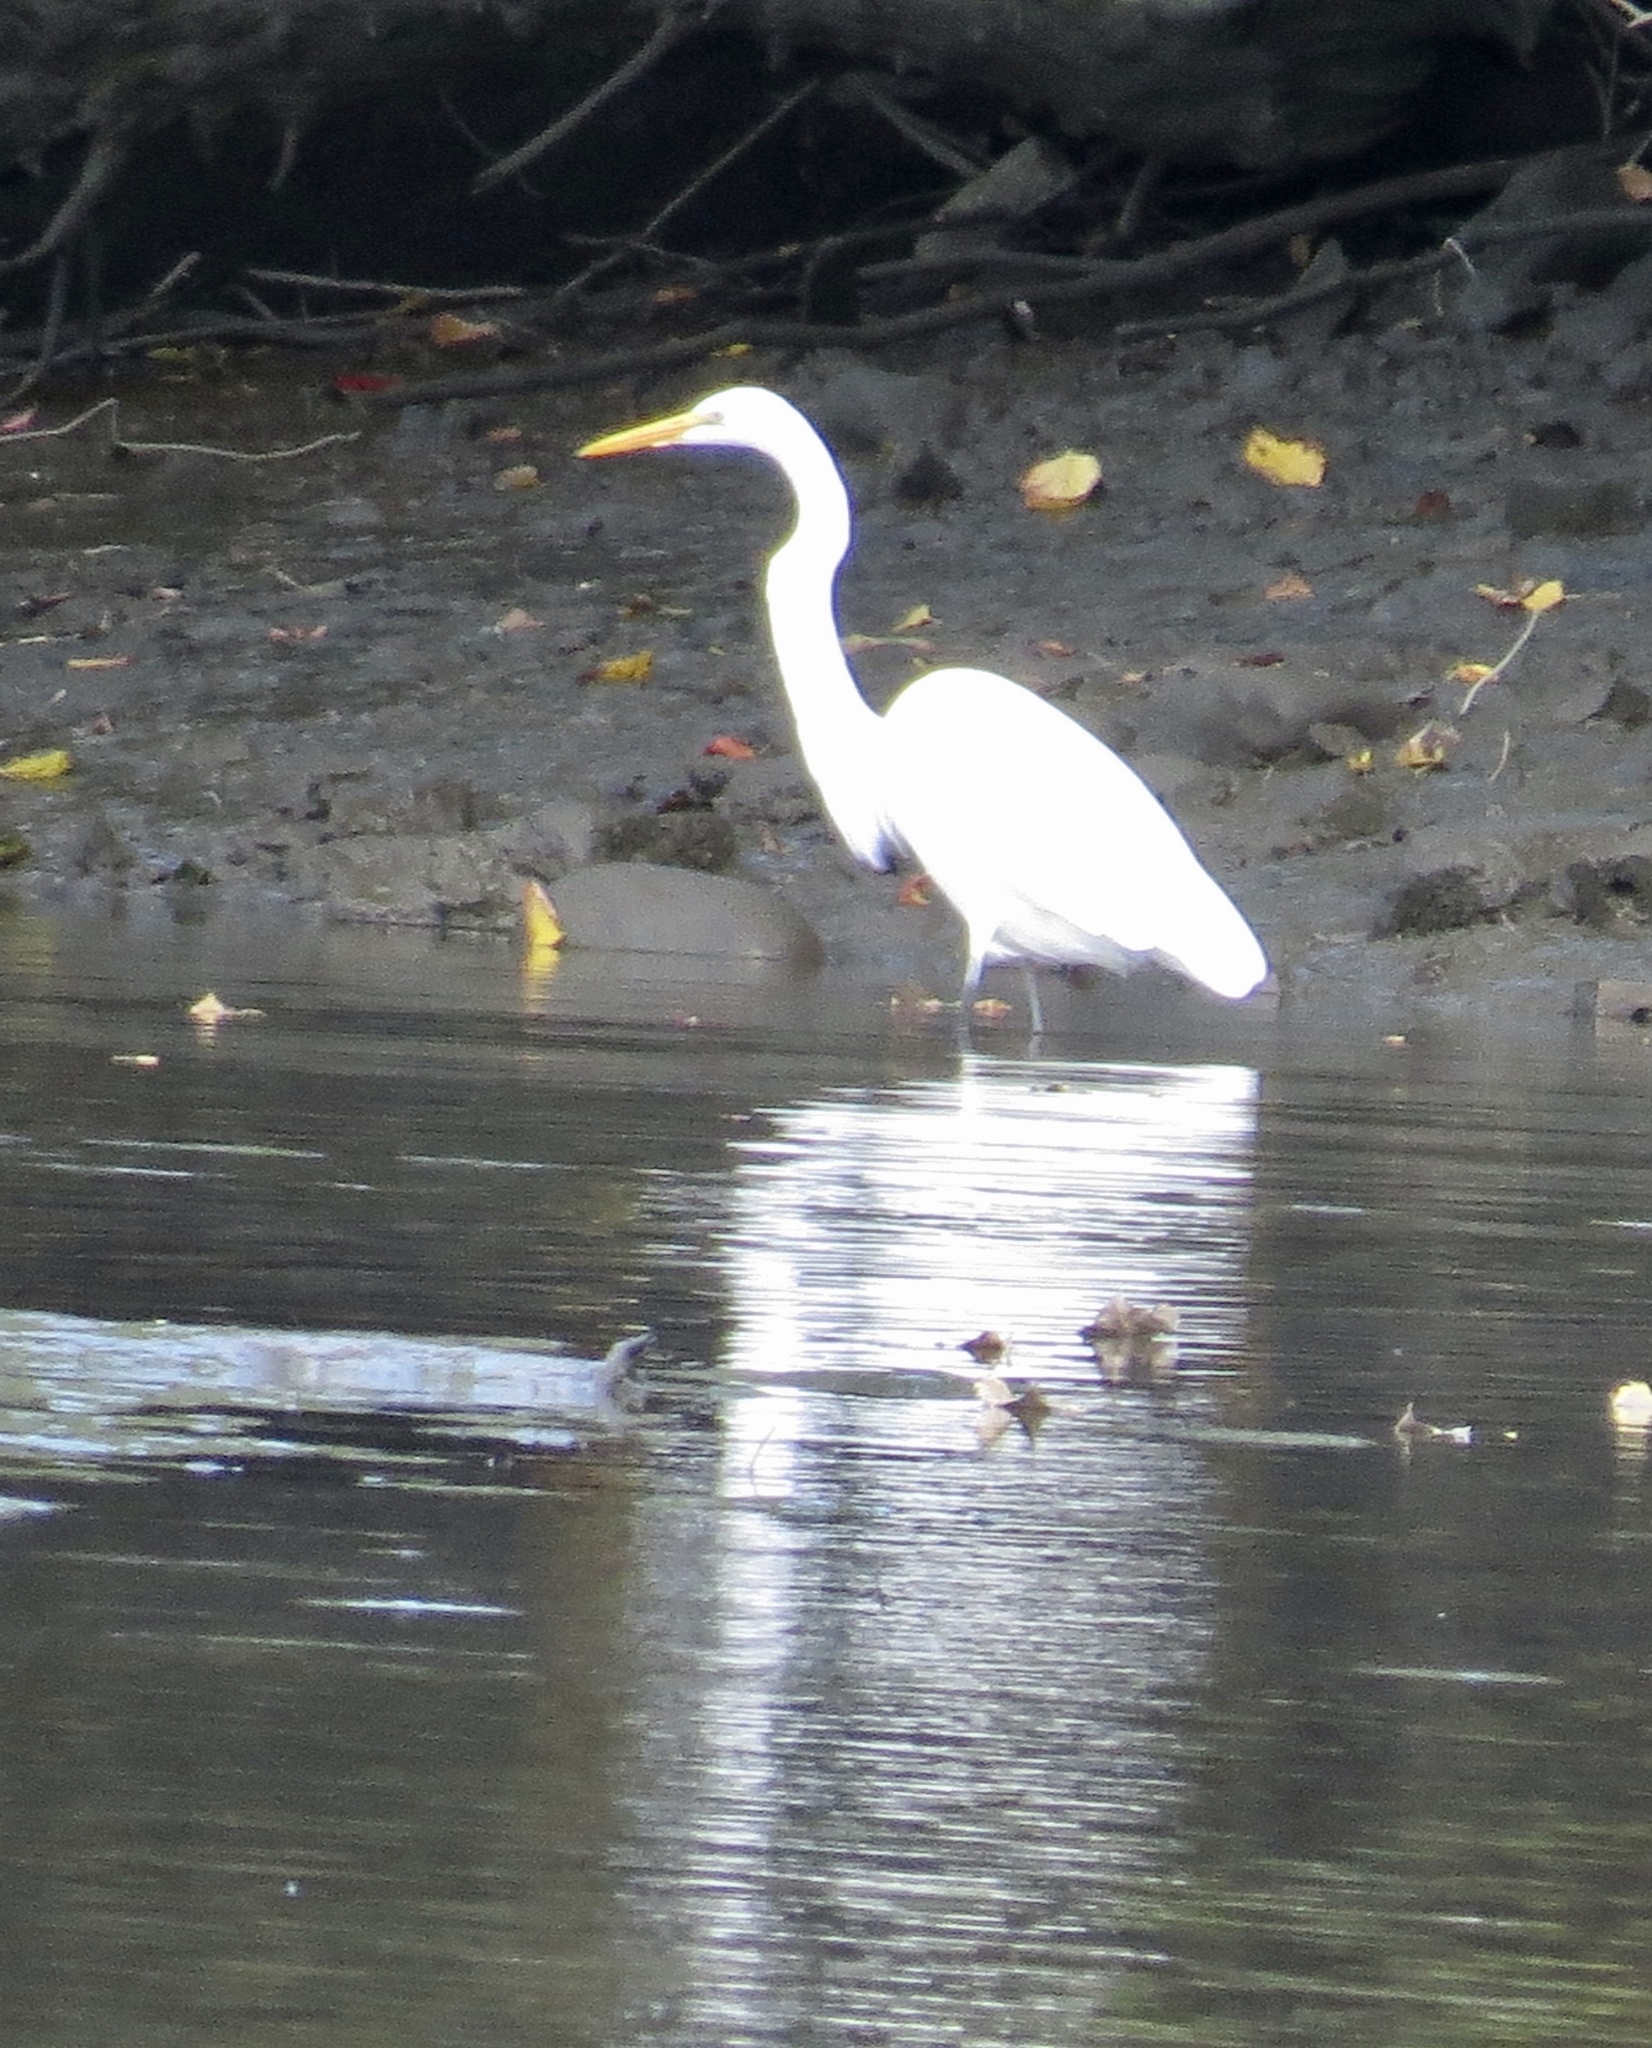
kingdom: Animalia
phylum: Chordata
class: Aves
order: Pelecaniformes
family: Ardeidae
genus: Ardea
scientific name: Ardea alba
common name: Great egret
